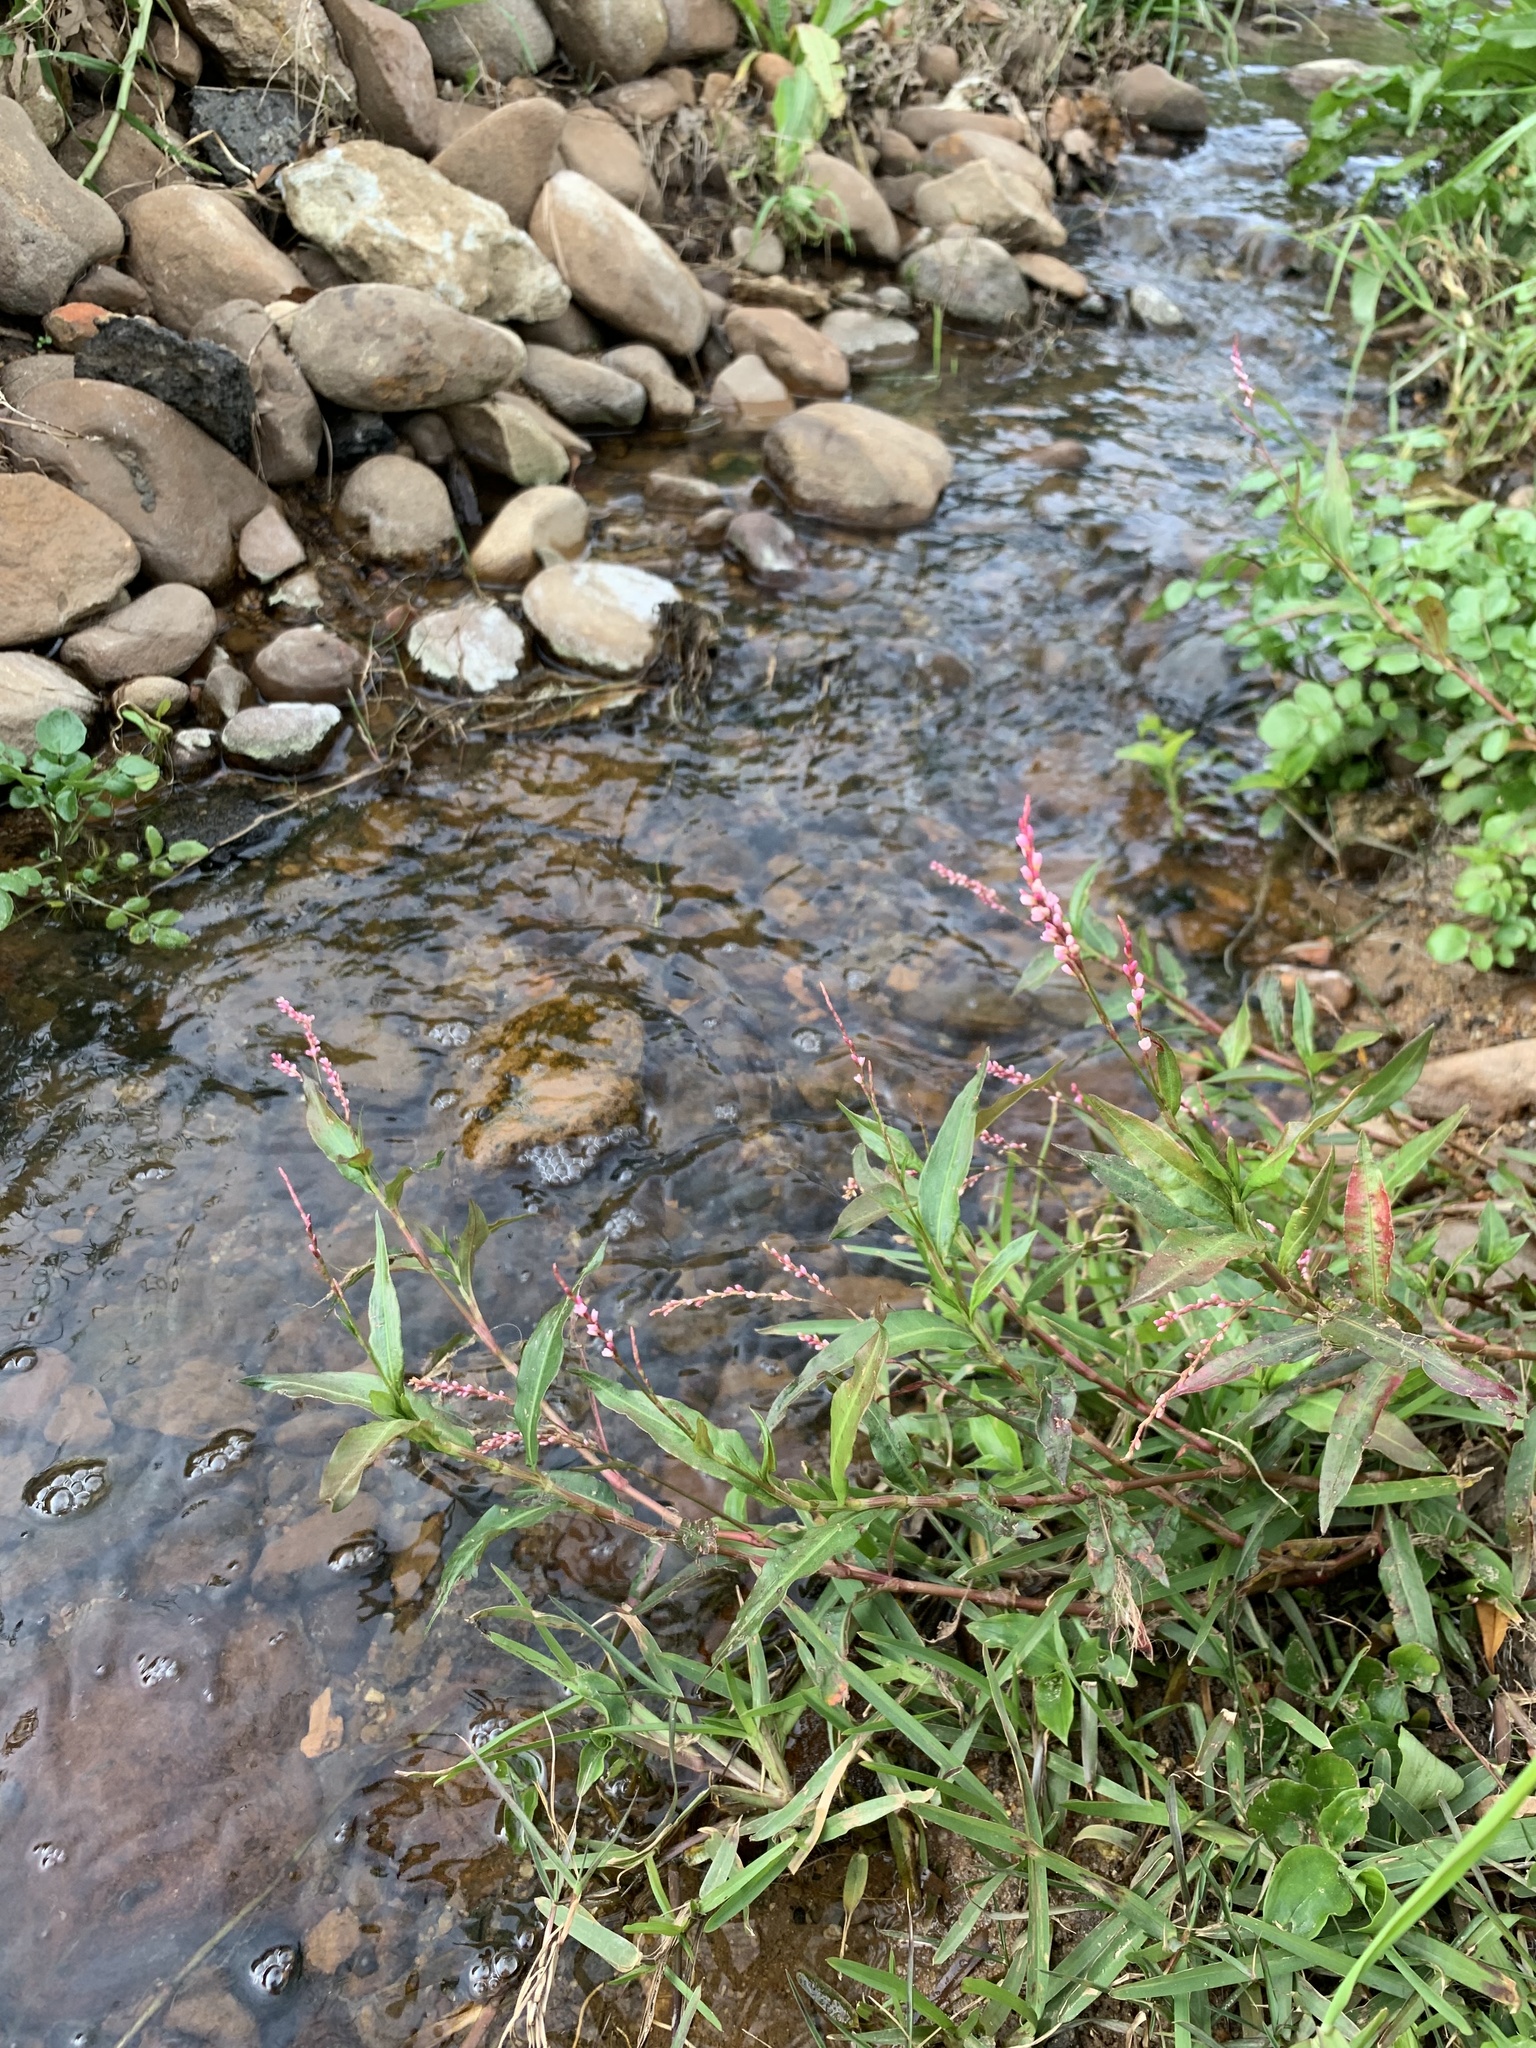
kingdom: Plantae
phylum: Tracheophyta
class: Magnoliopsida
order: Caryophyllales
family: Polygonaceae
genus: Persicaria
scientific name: Persicaria decipiens
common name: Willow-weed
